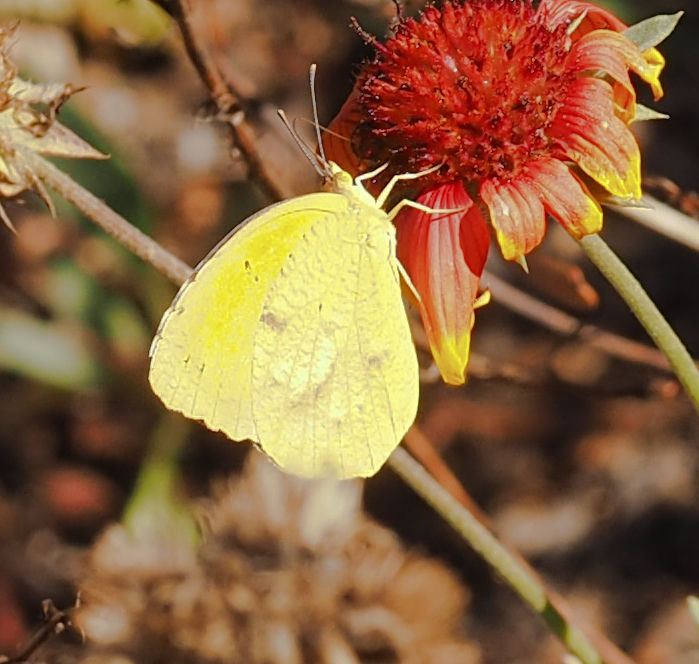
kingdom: Animalia
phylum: Arthropoda
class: Insecta
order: Lepidoptera
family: Pieridae
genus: Abaeis
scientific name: Abaeis nicippe
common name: Sleepy orange
